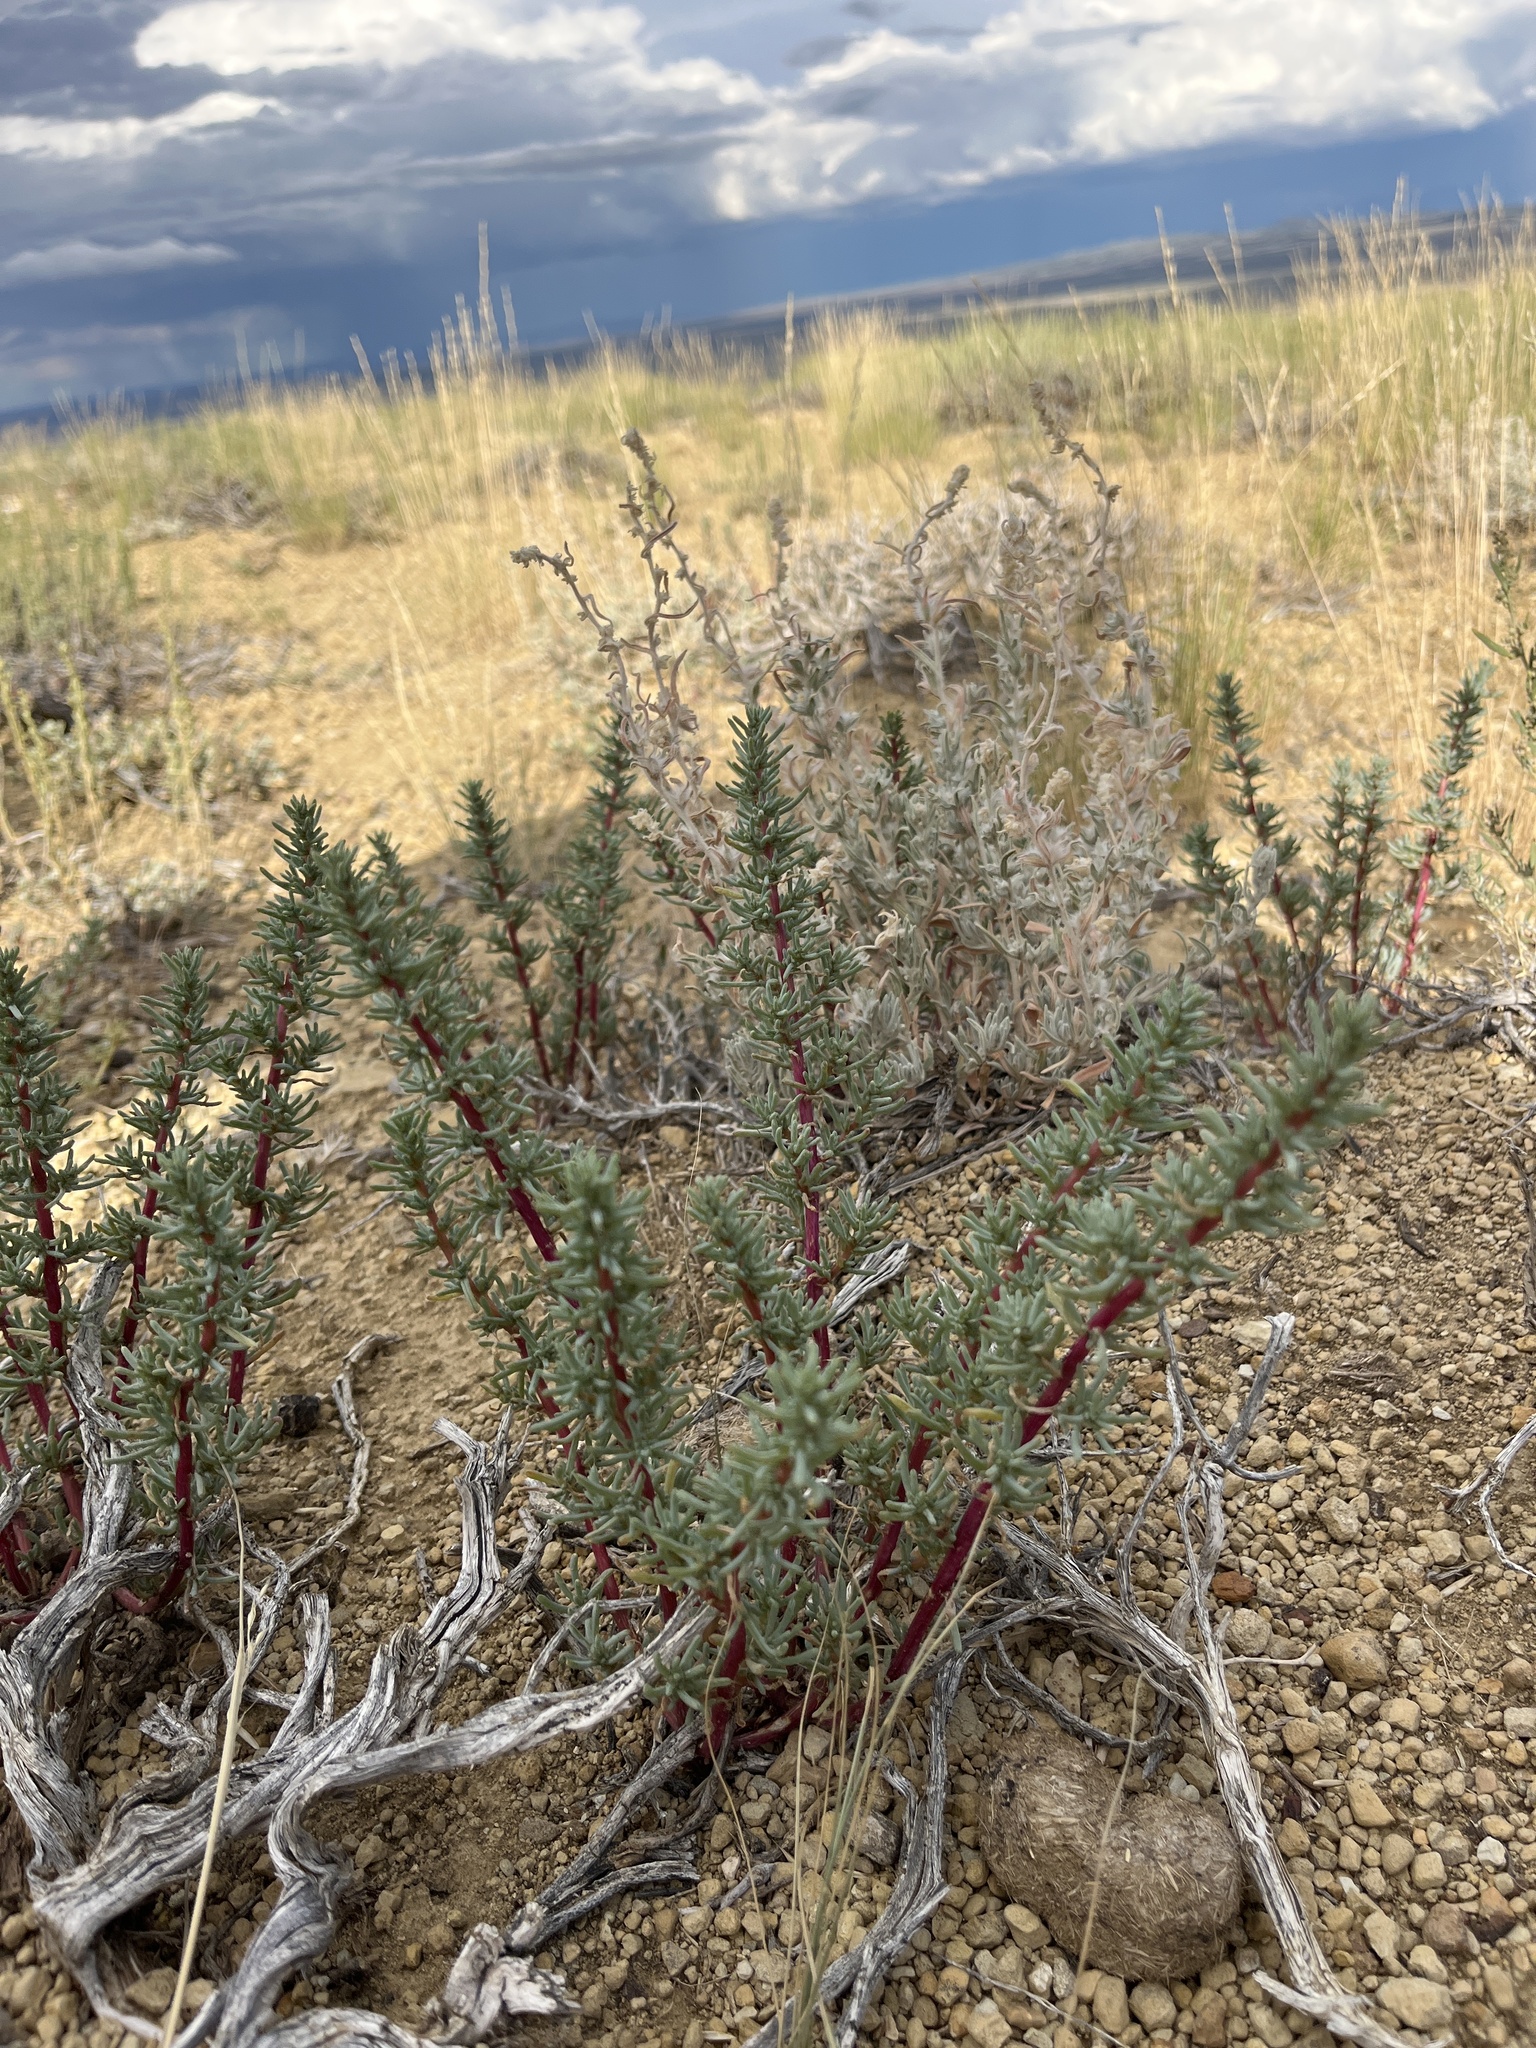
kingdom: Plantae
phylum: Tracheophyta
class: Magnoliopsida
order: Caryophyllales
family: Amaranthaceae
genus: Halogeton
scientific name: Halogeton glomeratus
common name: Saltlover
